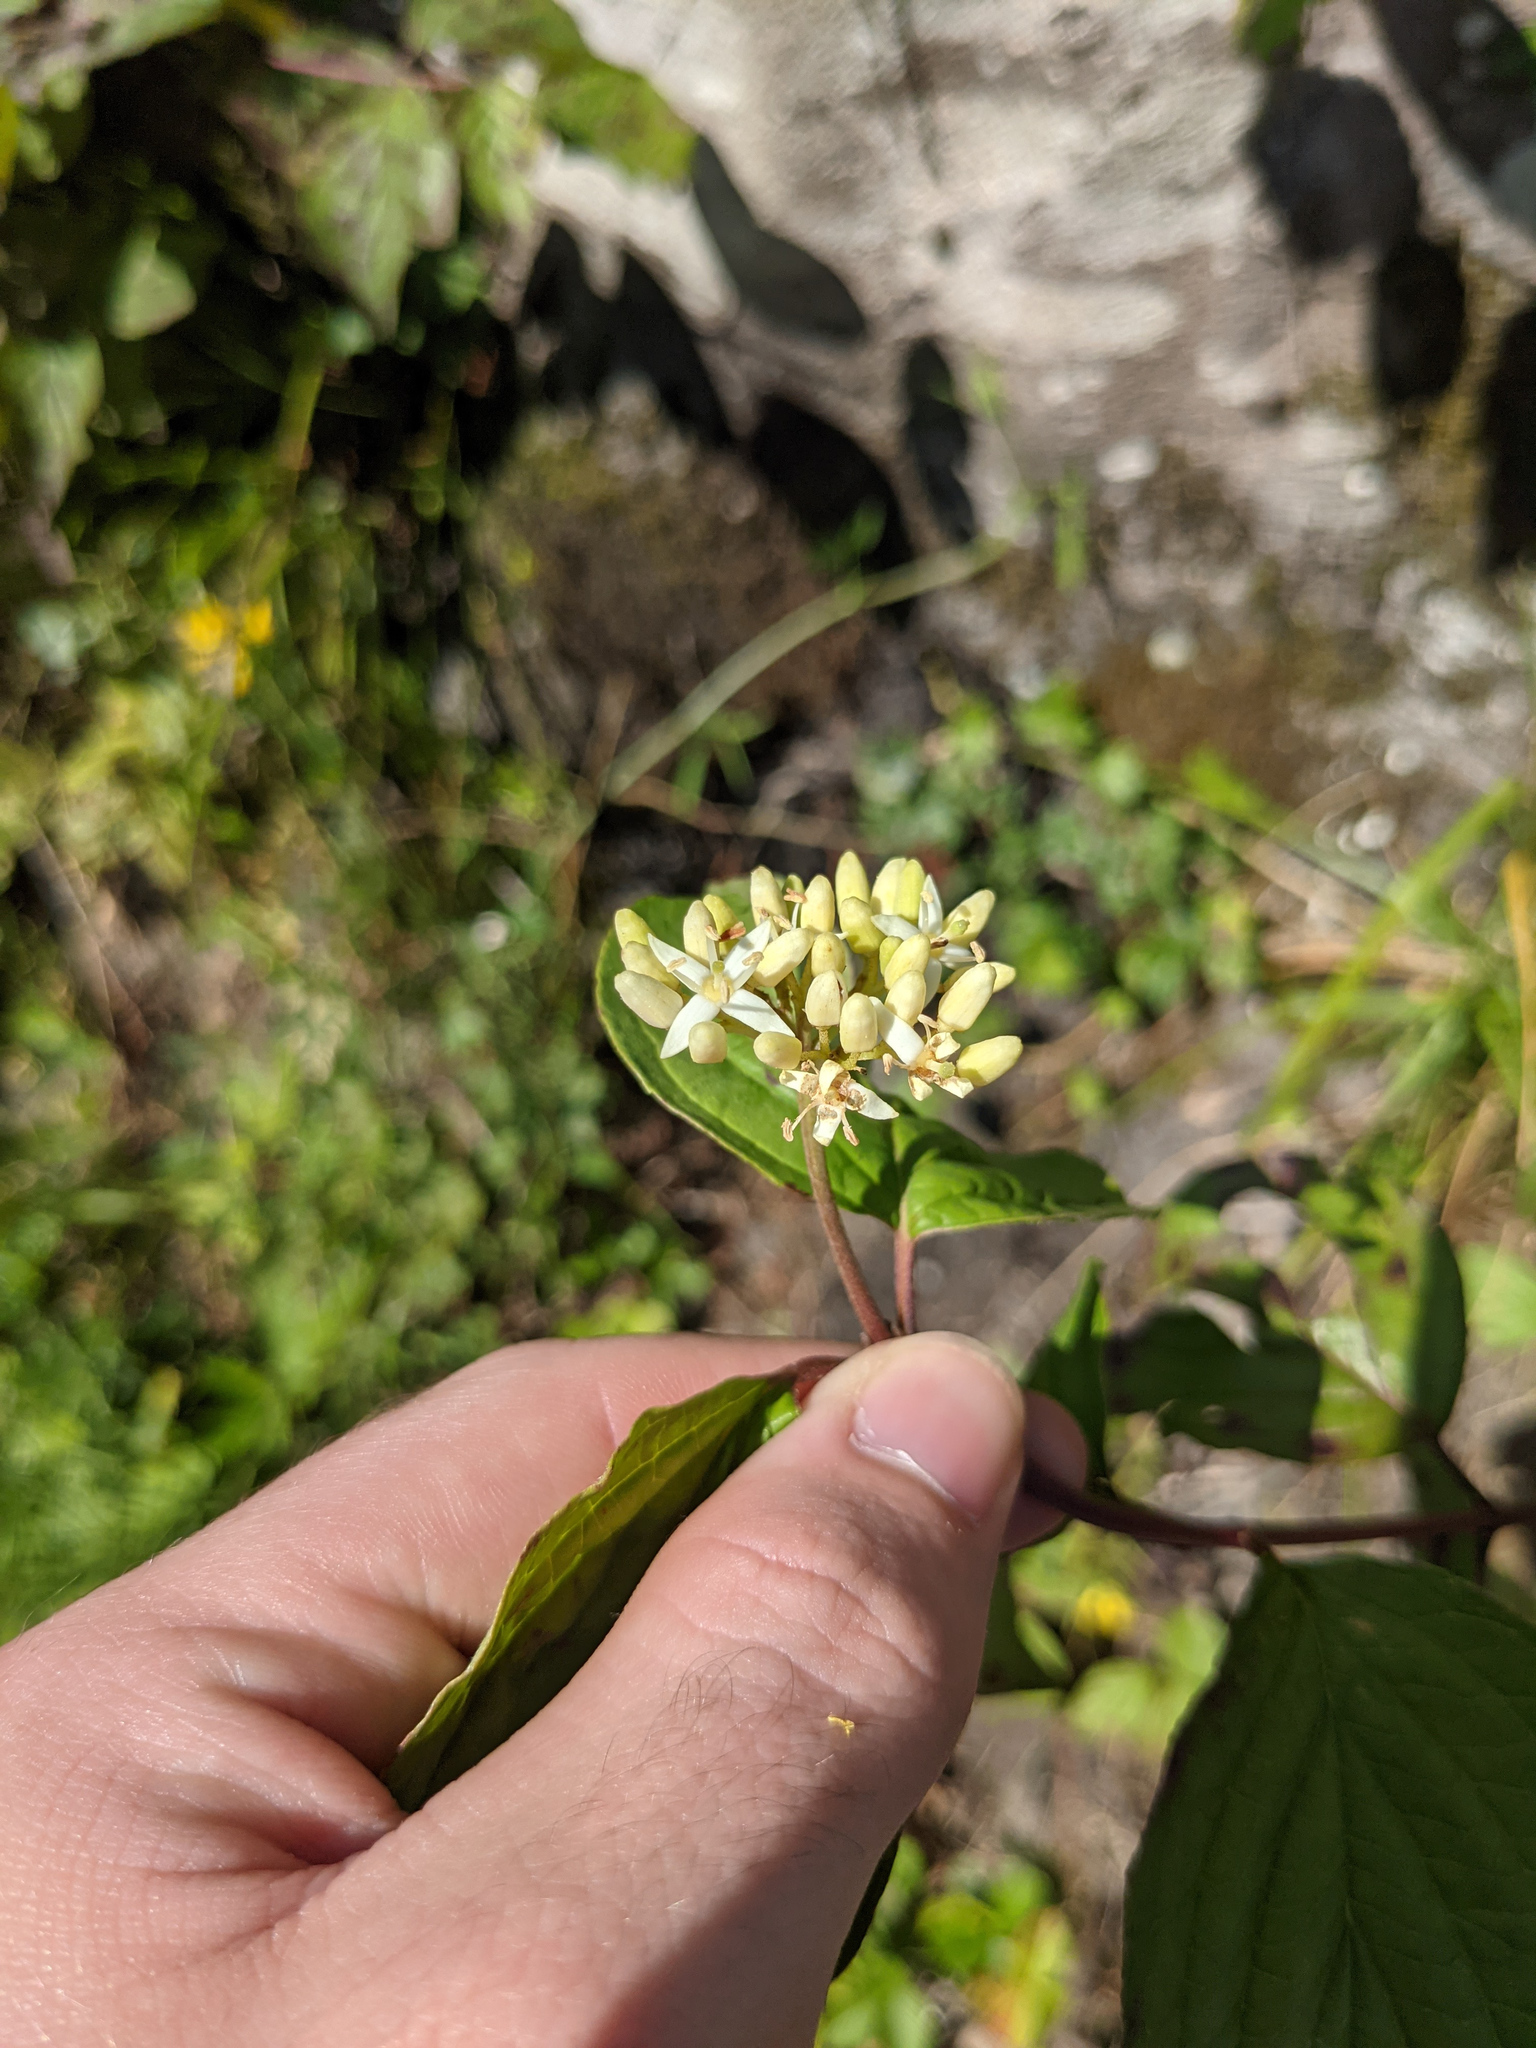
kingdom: Plantae
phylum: Tracheophyta
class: Magnoliopsida
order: Cornales
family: Cornaceae
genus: Cornus
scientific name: Cornus sanguinea
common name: Dogwood
